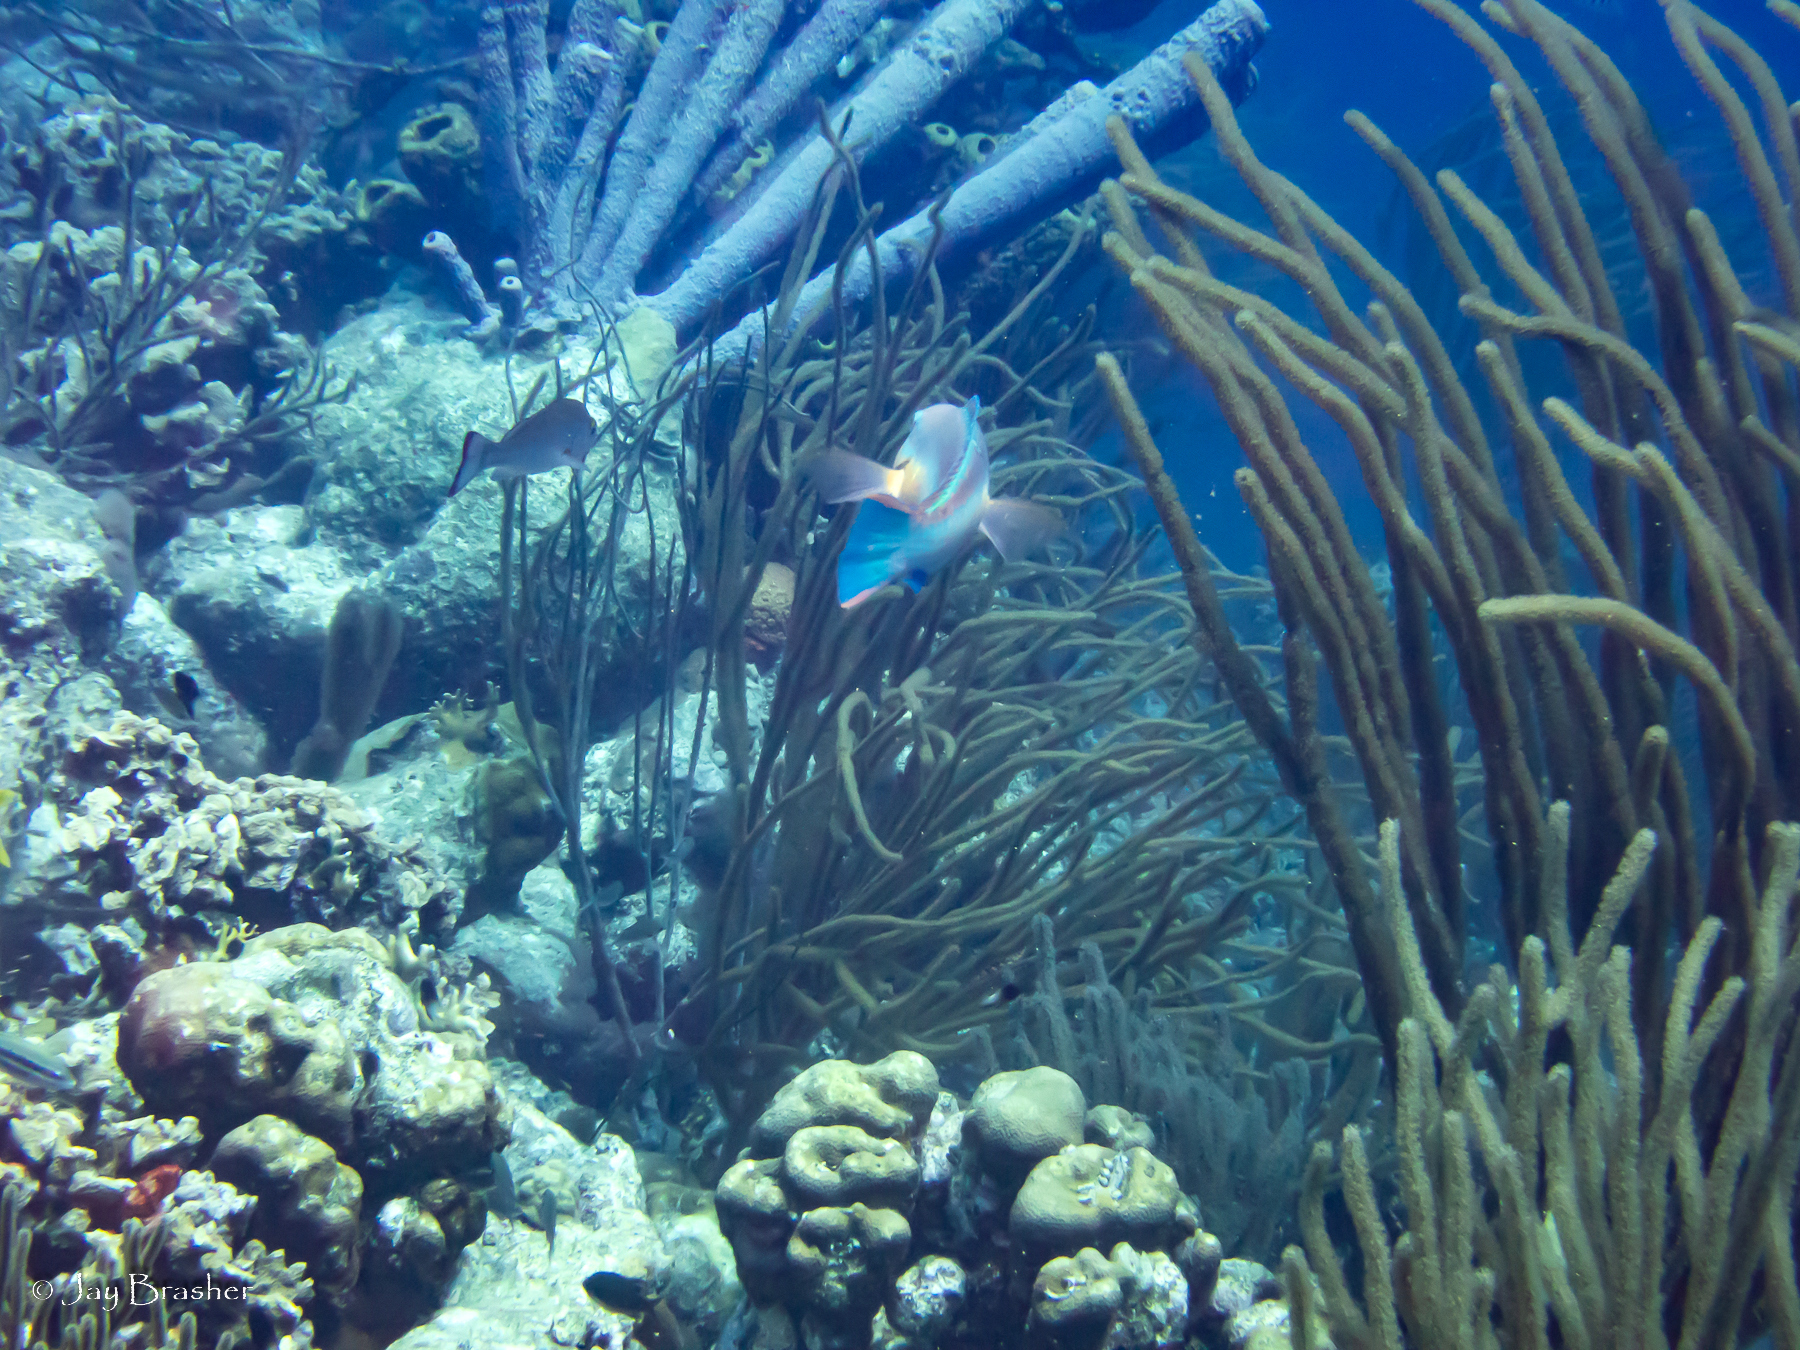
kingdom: Animalia
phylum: Cnidaria
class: Anthozoa
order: Scleractinia
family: Merulinidae
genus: Orbicella
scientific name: Orbicella annularis
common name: Boulder star coral
